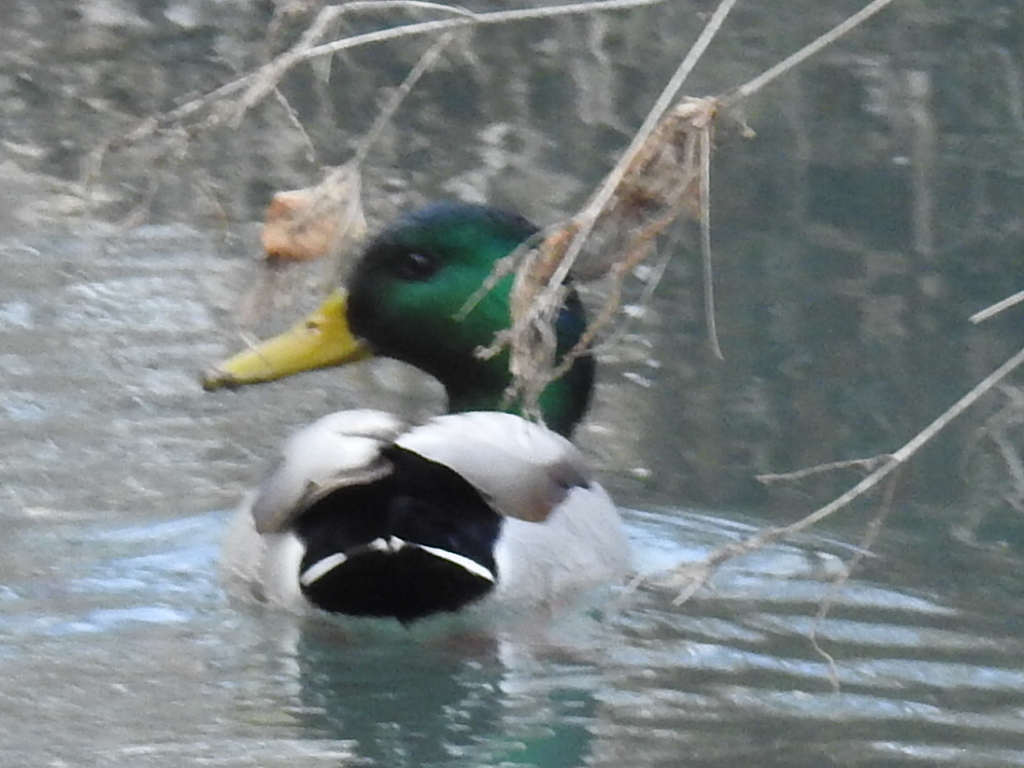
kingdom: Animalia
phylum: Chordata
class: Aves
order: Anseriformes
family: Anatidae
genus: Anas
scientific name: Anas platyrhynchos
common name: Mallard
